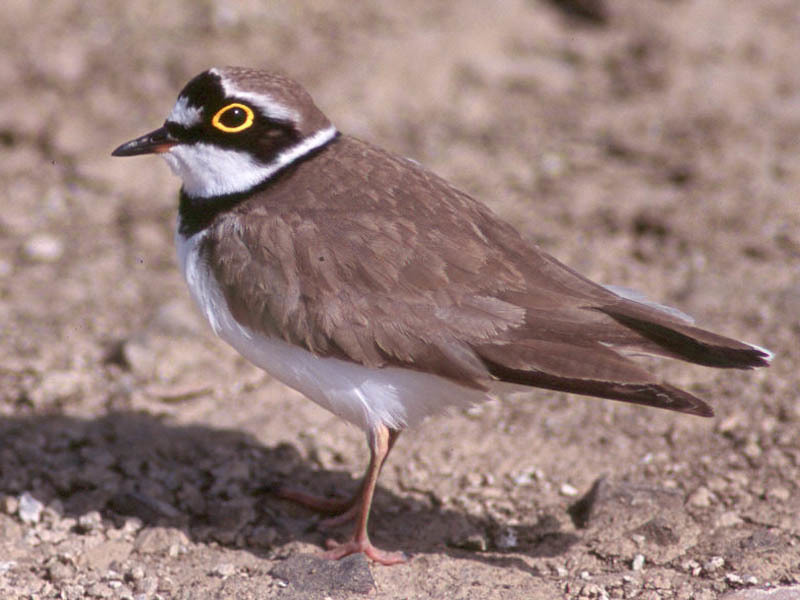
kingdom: Animalia
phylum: Chordata
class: Aves
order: Charadriiformes
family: Charadriidae
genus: Charadrius
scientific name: Charadrius dubius
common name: Little ringed plover
